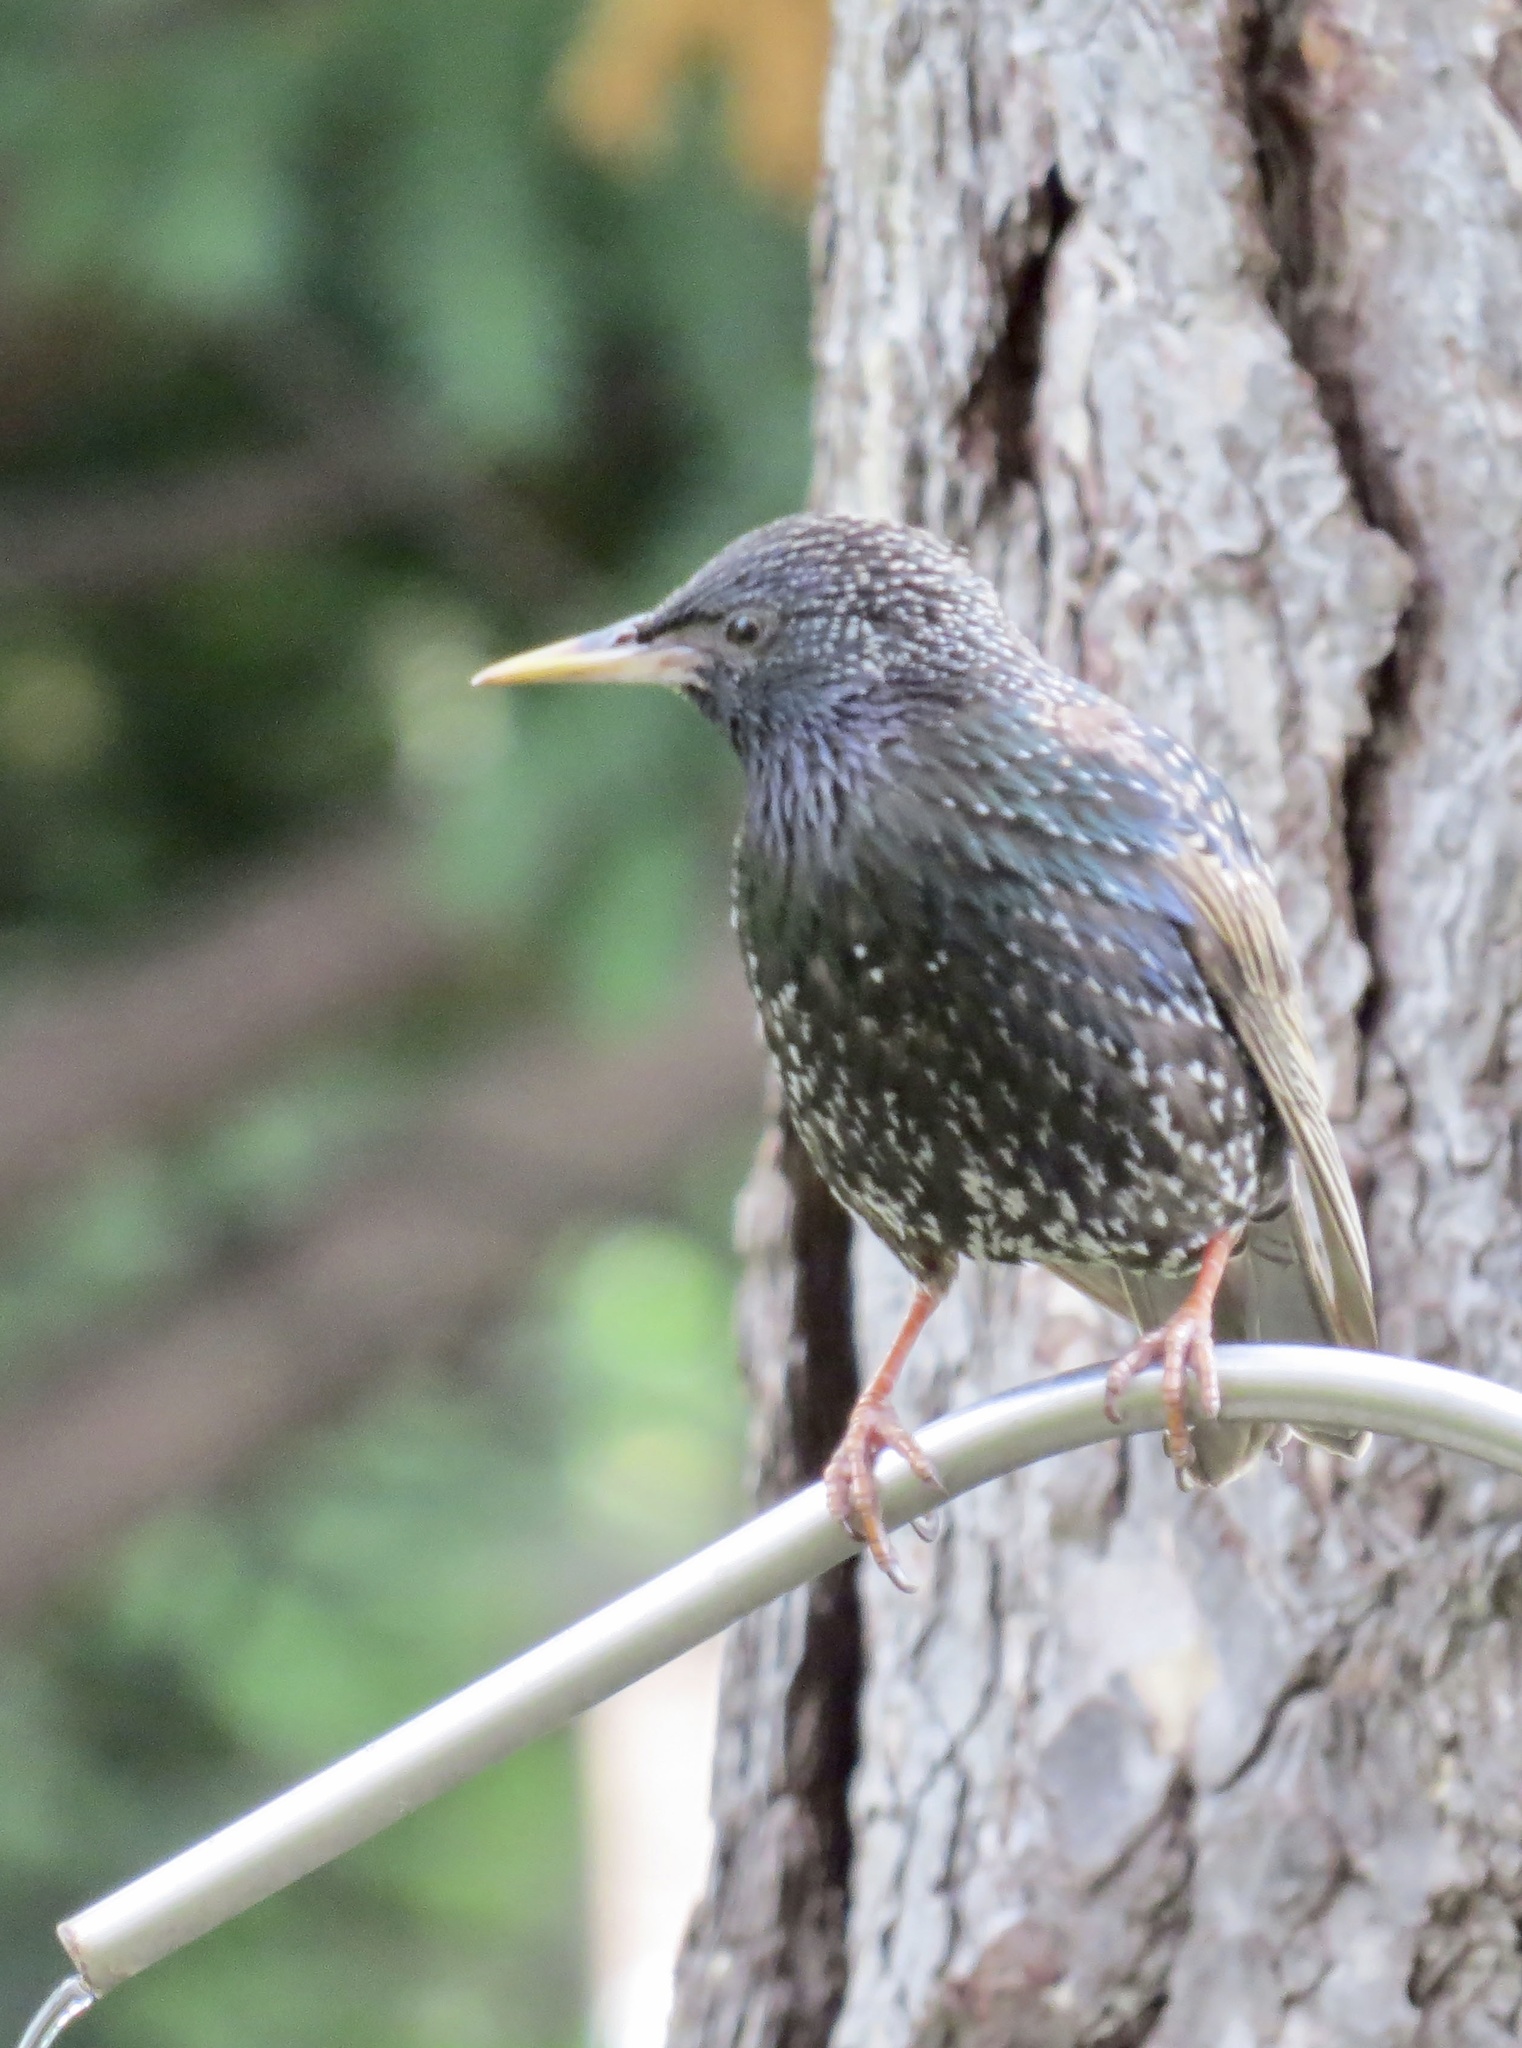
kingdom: Animalia
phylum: Chordata
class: Aves
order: Passeriformes
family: Sturnidae
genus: Sturnus
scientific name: Sturnus vulgaris
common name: Common starling
